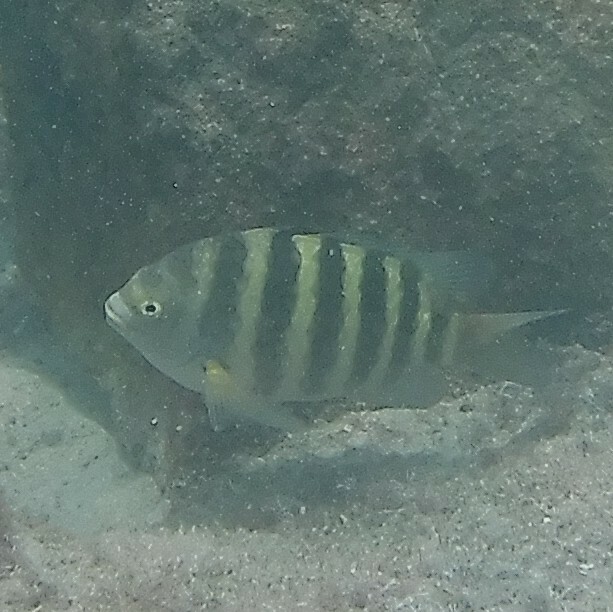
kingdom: Animalia
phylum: Chordata
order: Perciformes
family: Pomacentridae
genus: Abudefduf
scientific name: Abudefduf septemfasciatus
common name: Banded sergeant
